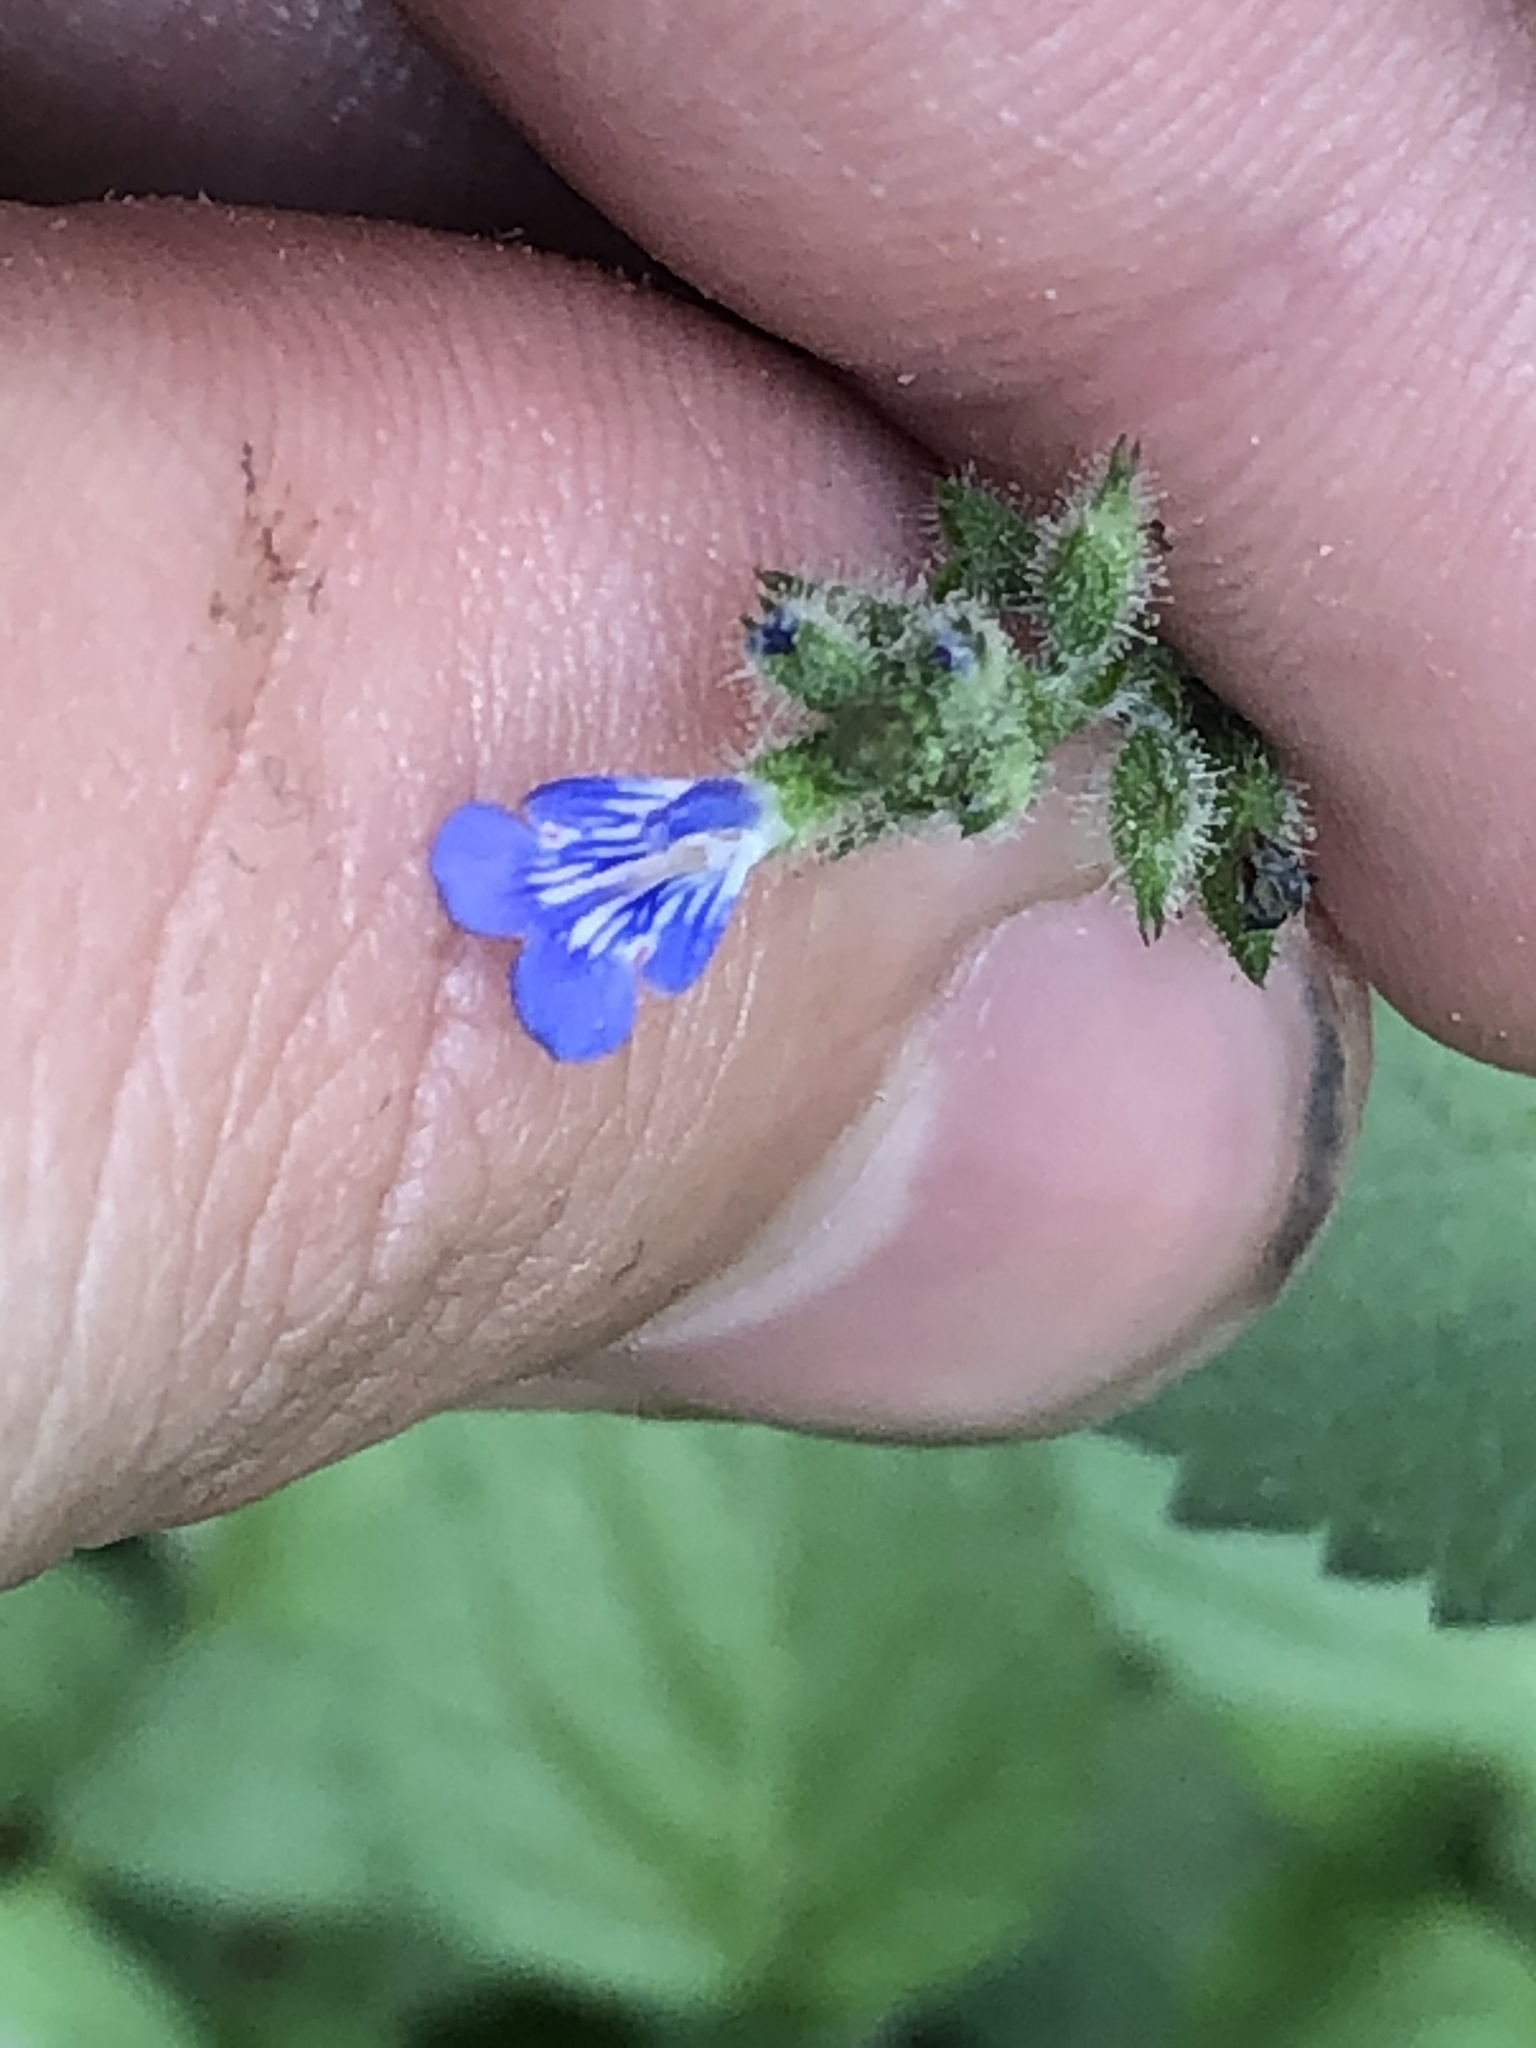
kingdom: Plantae
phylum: Tracheophyta
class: Magnoliopsida
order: Lamiales
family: Lamiaceae
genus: Salvia
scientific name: Salvia misella
